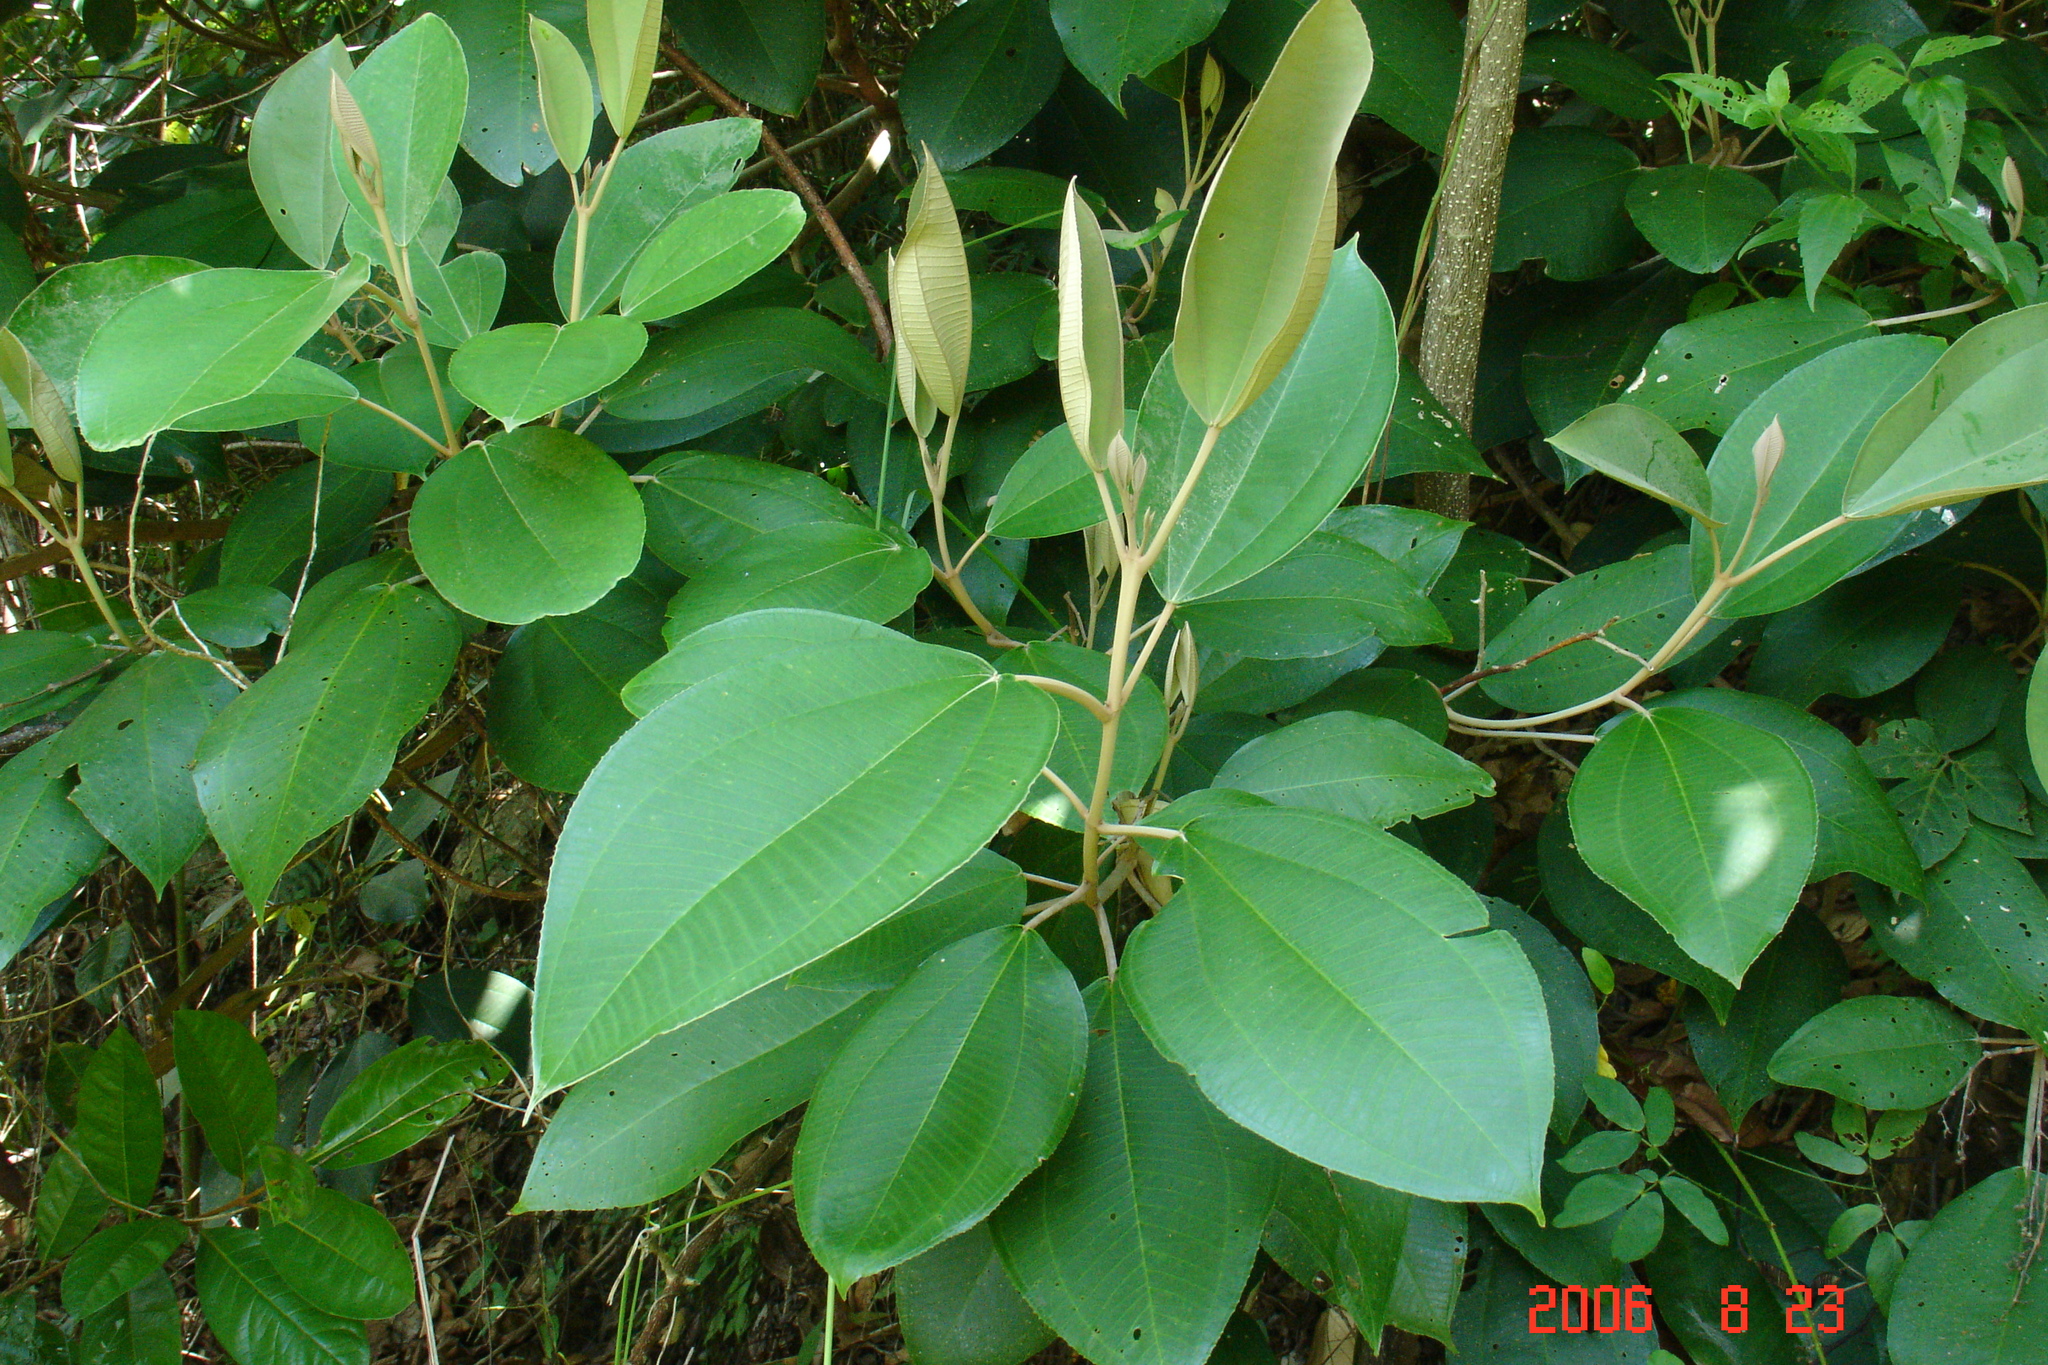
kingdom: Plantae
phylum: Tracheophyta
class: Magnoliopsida
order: Myrtales
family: Melastomataceae
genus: Miconia
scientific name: Miconia argentea
